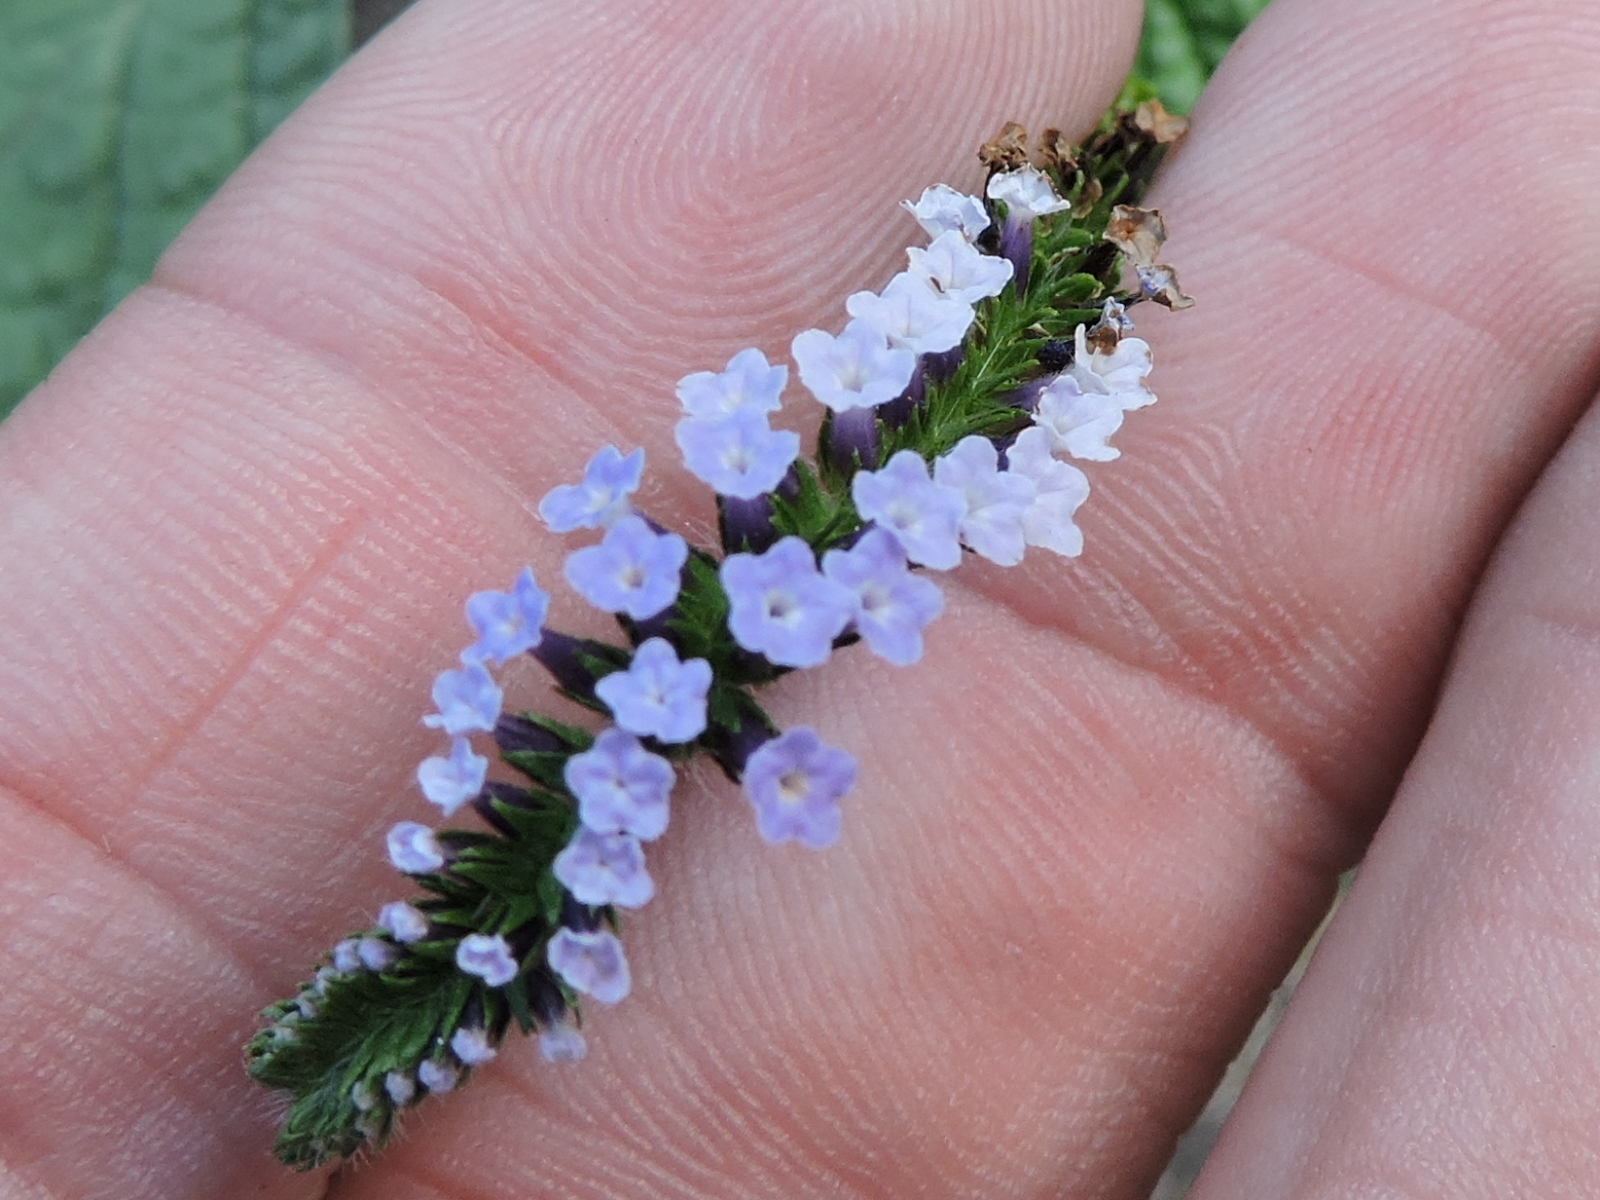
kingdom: Plantae
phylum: Tracheophyta
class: Magnoliopsida
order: Boraginales
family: Heliotropiaceae
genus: Heliotropium
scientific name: Heliotropium indicum
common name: Indian heliotrope
